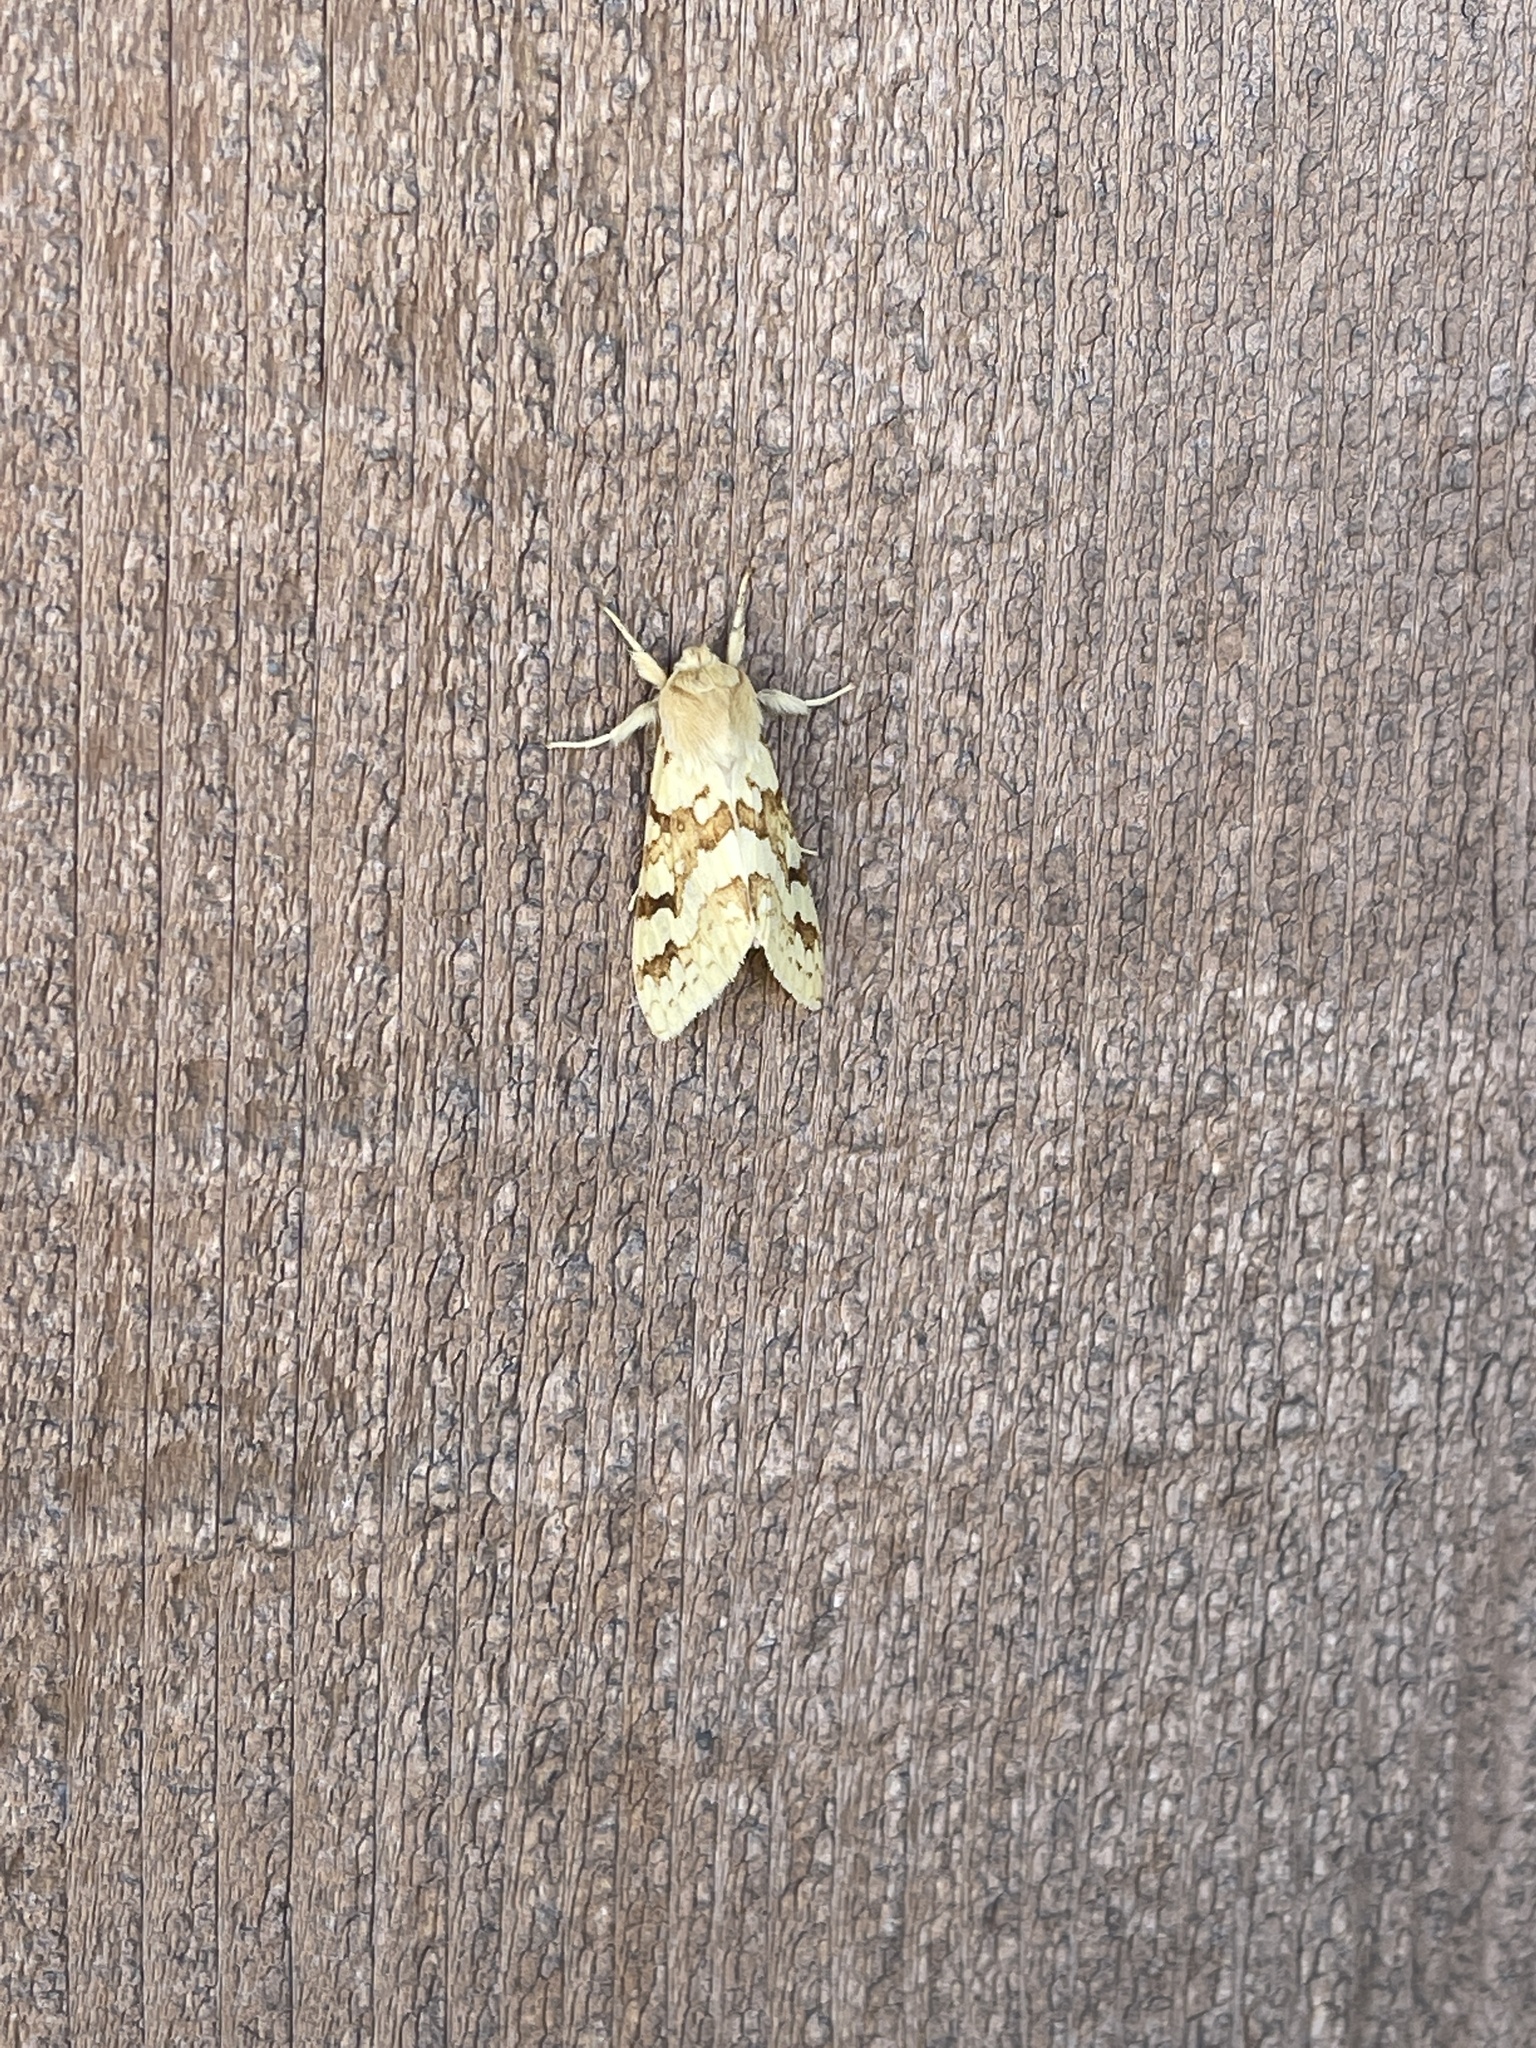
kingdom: Animalia
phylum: Arthropoda
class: Insecta
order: Lepidoptera
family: Erebidae
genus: Lophocampa
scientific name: Lophocampa maculata
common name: Spotted tussock moth
